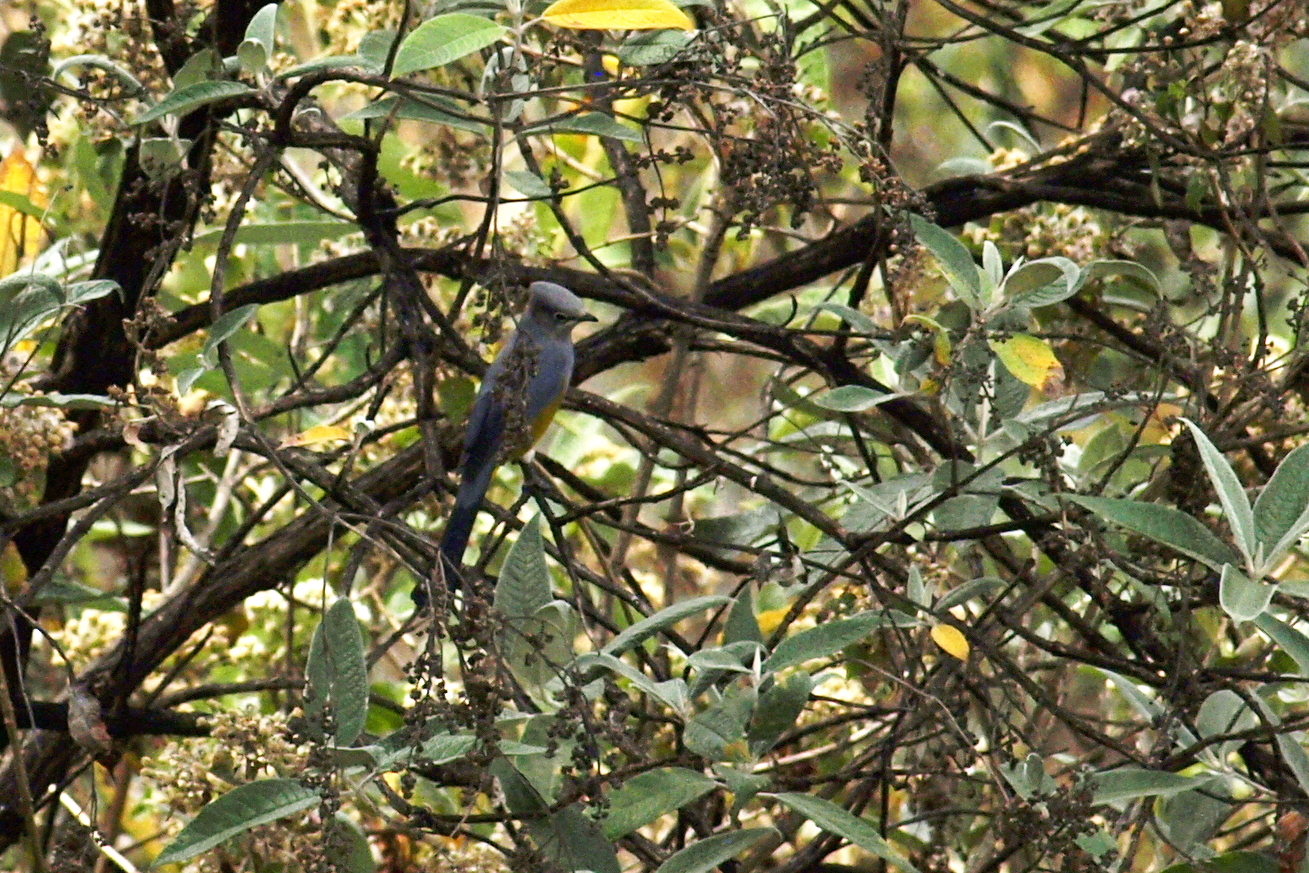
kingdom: Animalia
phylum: Chordata
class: Aves
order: Passeriformes
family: Ptilogonatidae
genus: Ptilogonys
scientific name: Ptilogonys cinereus
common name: Gray silky-flycatcher
